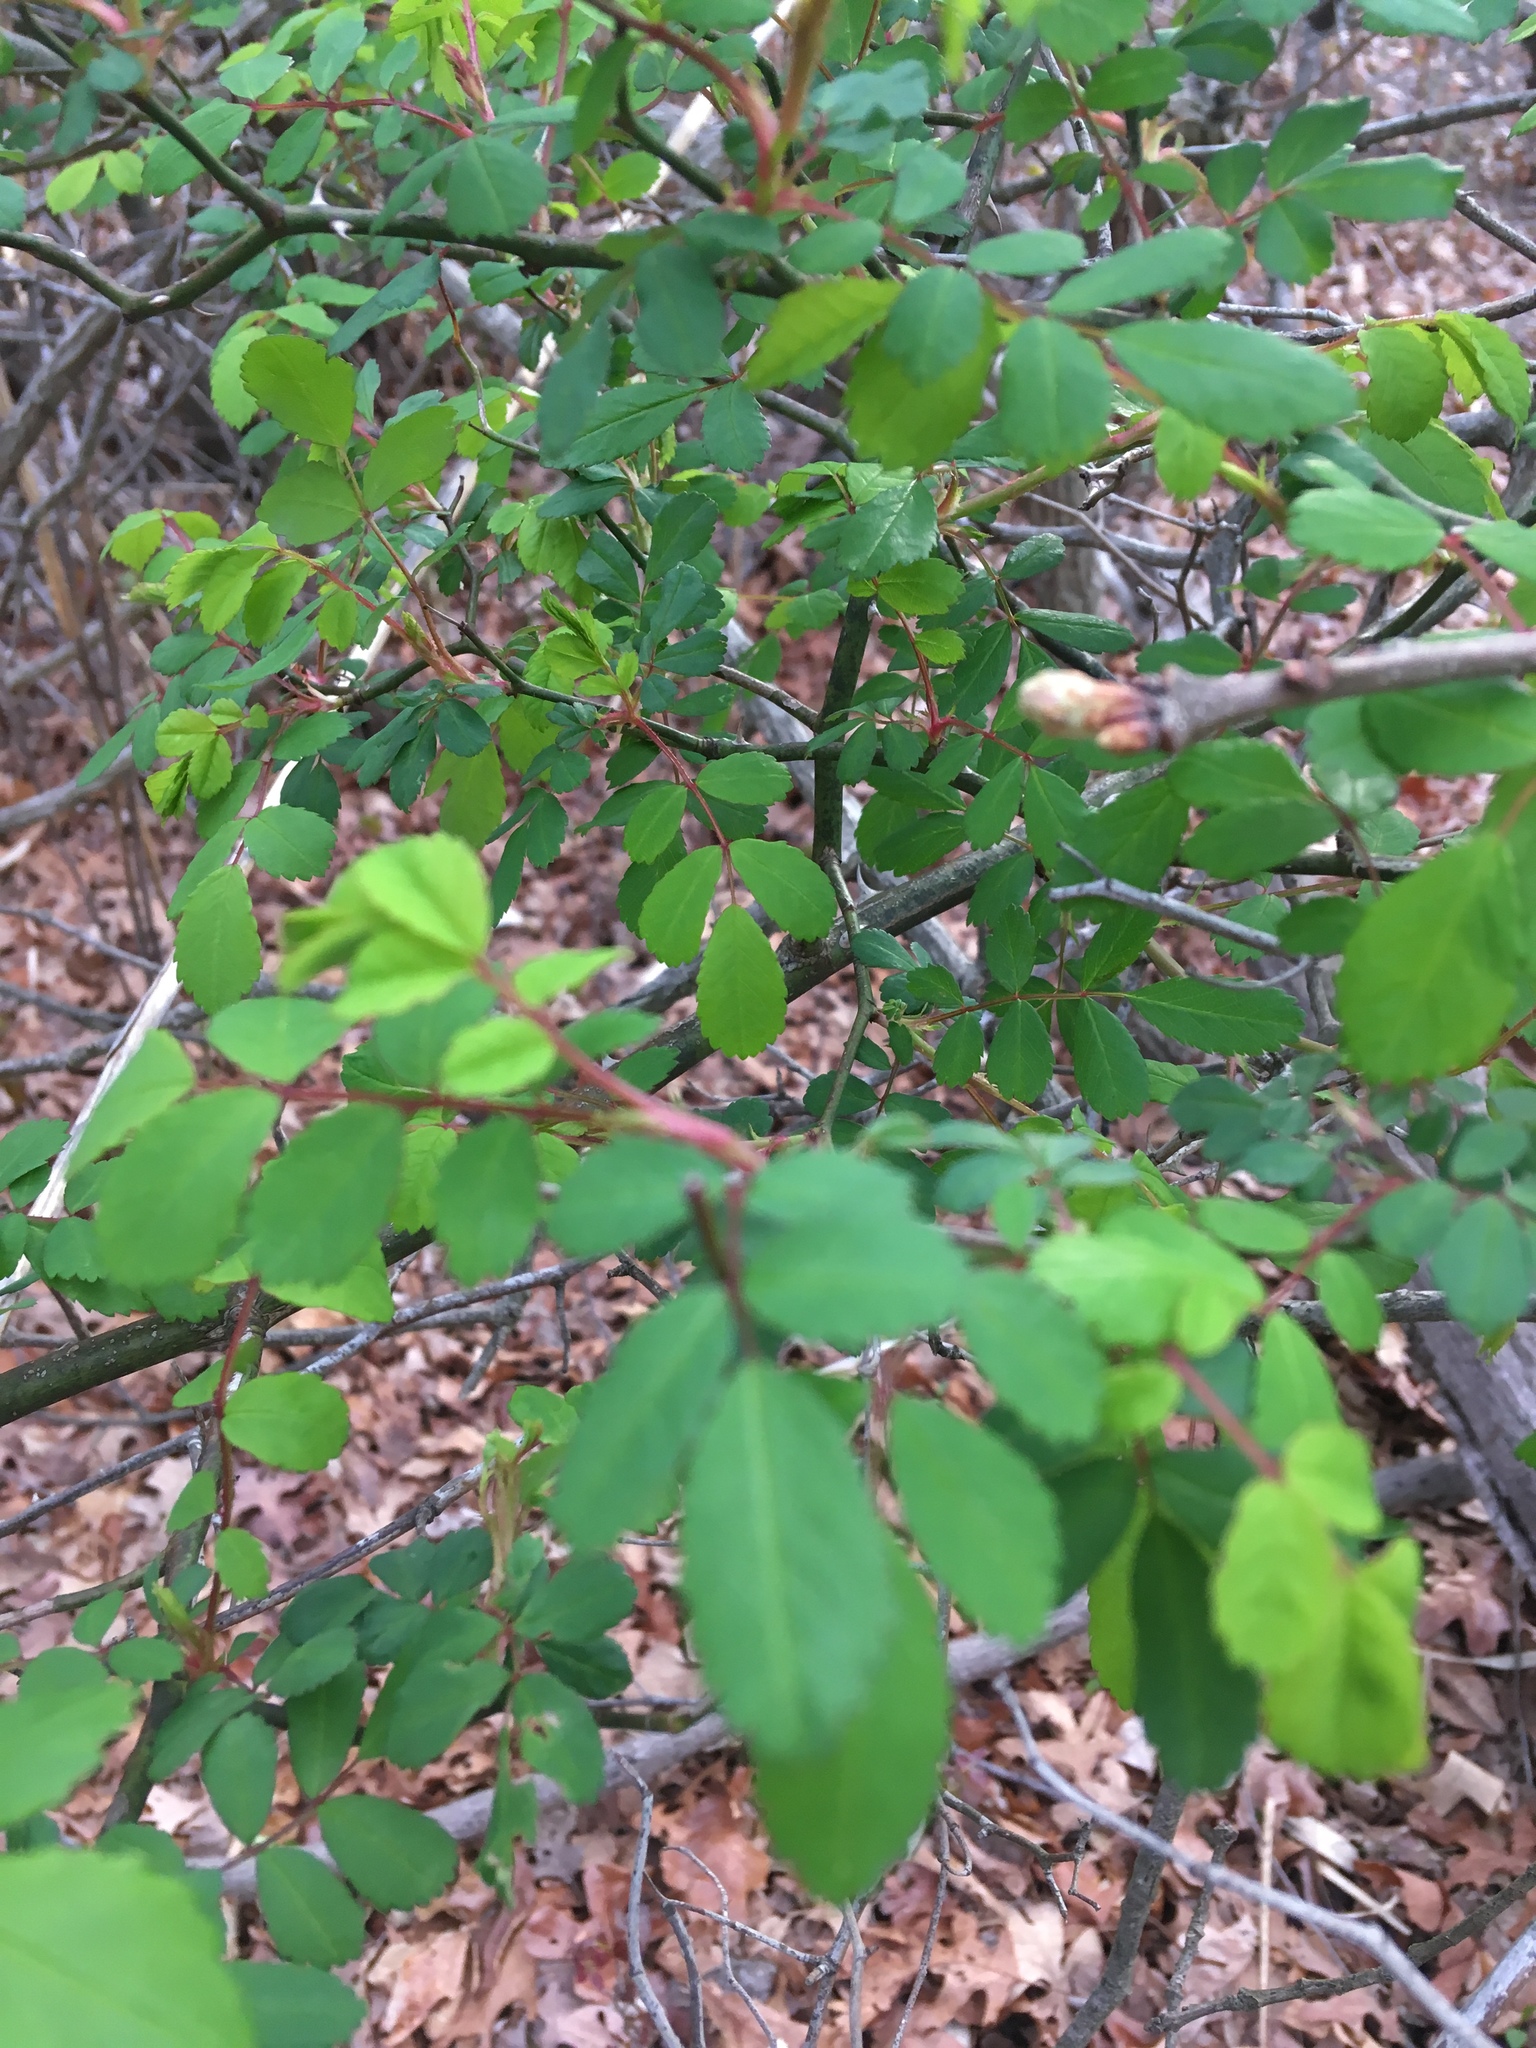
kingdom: Plantae
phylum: Tracheophyta
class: Magnoliopsida
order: Rosales
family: Rosaceae
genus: Rosa
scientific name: Rosa multiflora
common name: Multiflora rose
